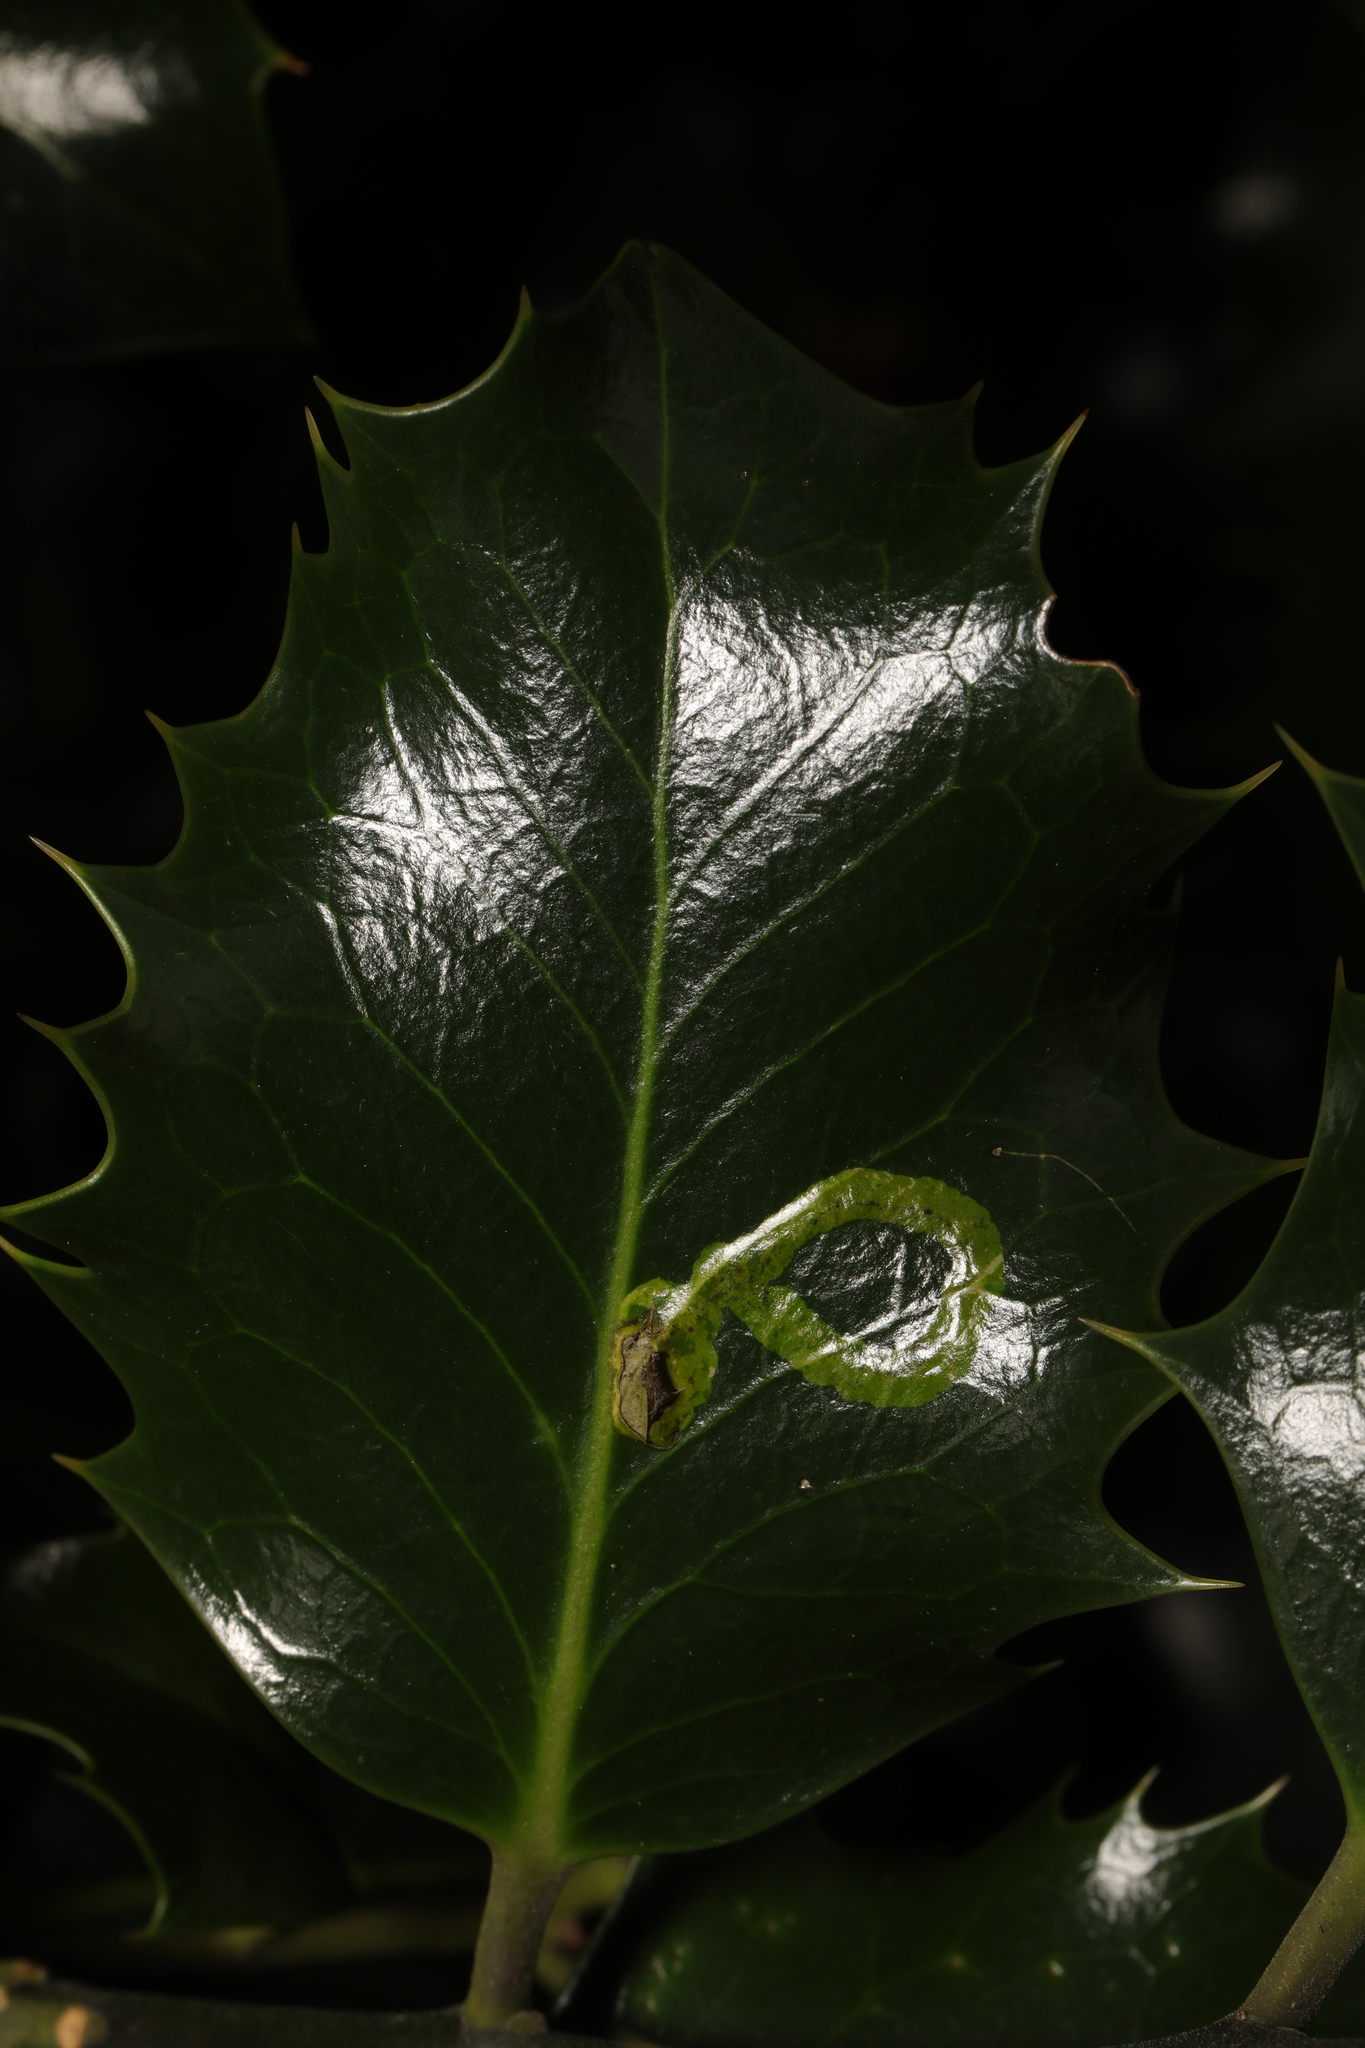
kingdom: Animalia
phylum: Arthropoda
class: Insecta
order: Diptera
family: Agromyzidae
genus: Phytomyza
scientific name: Phytomyza ilicis
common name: Holly leafminer
